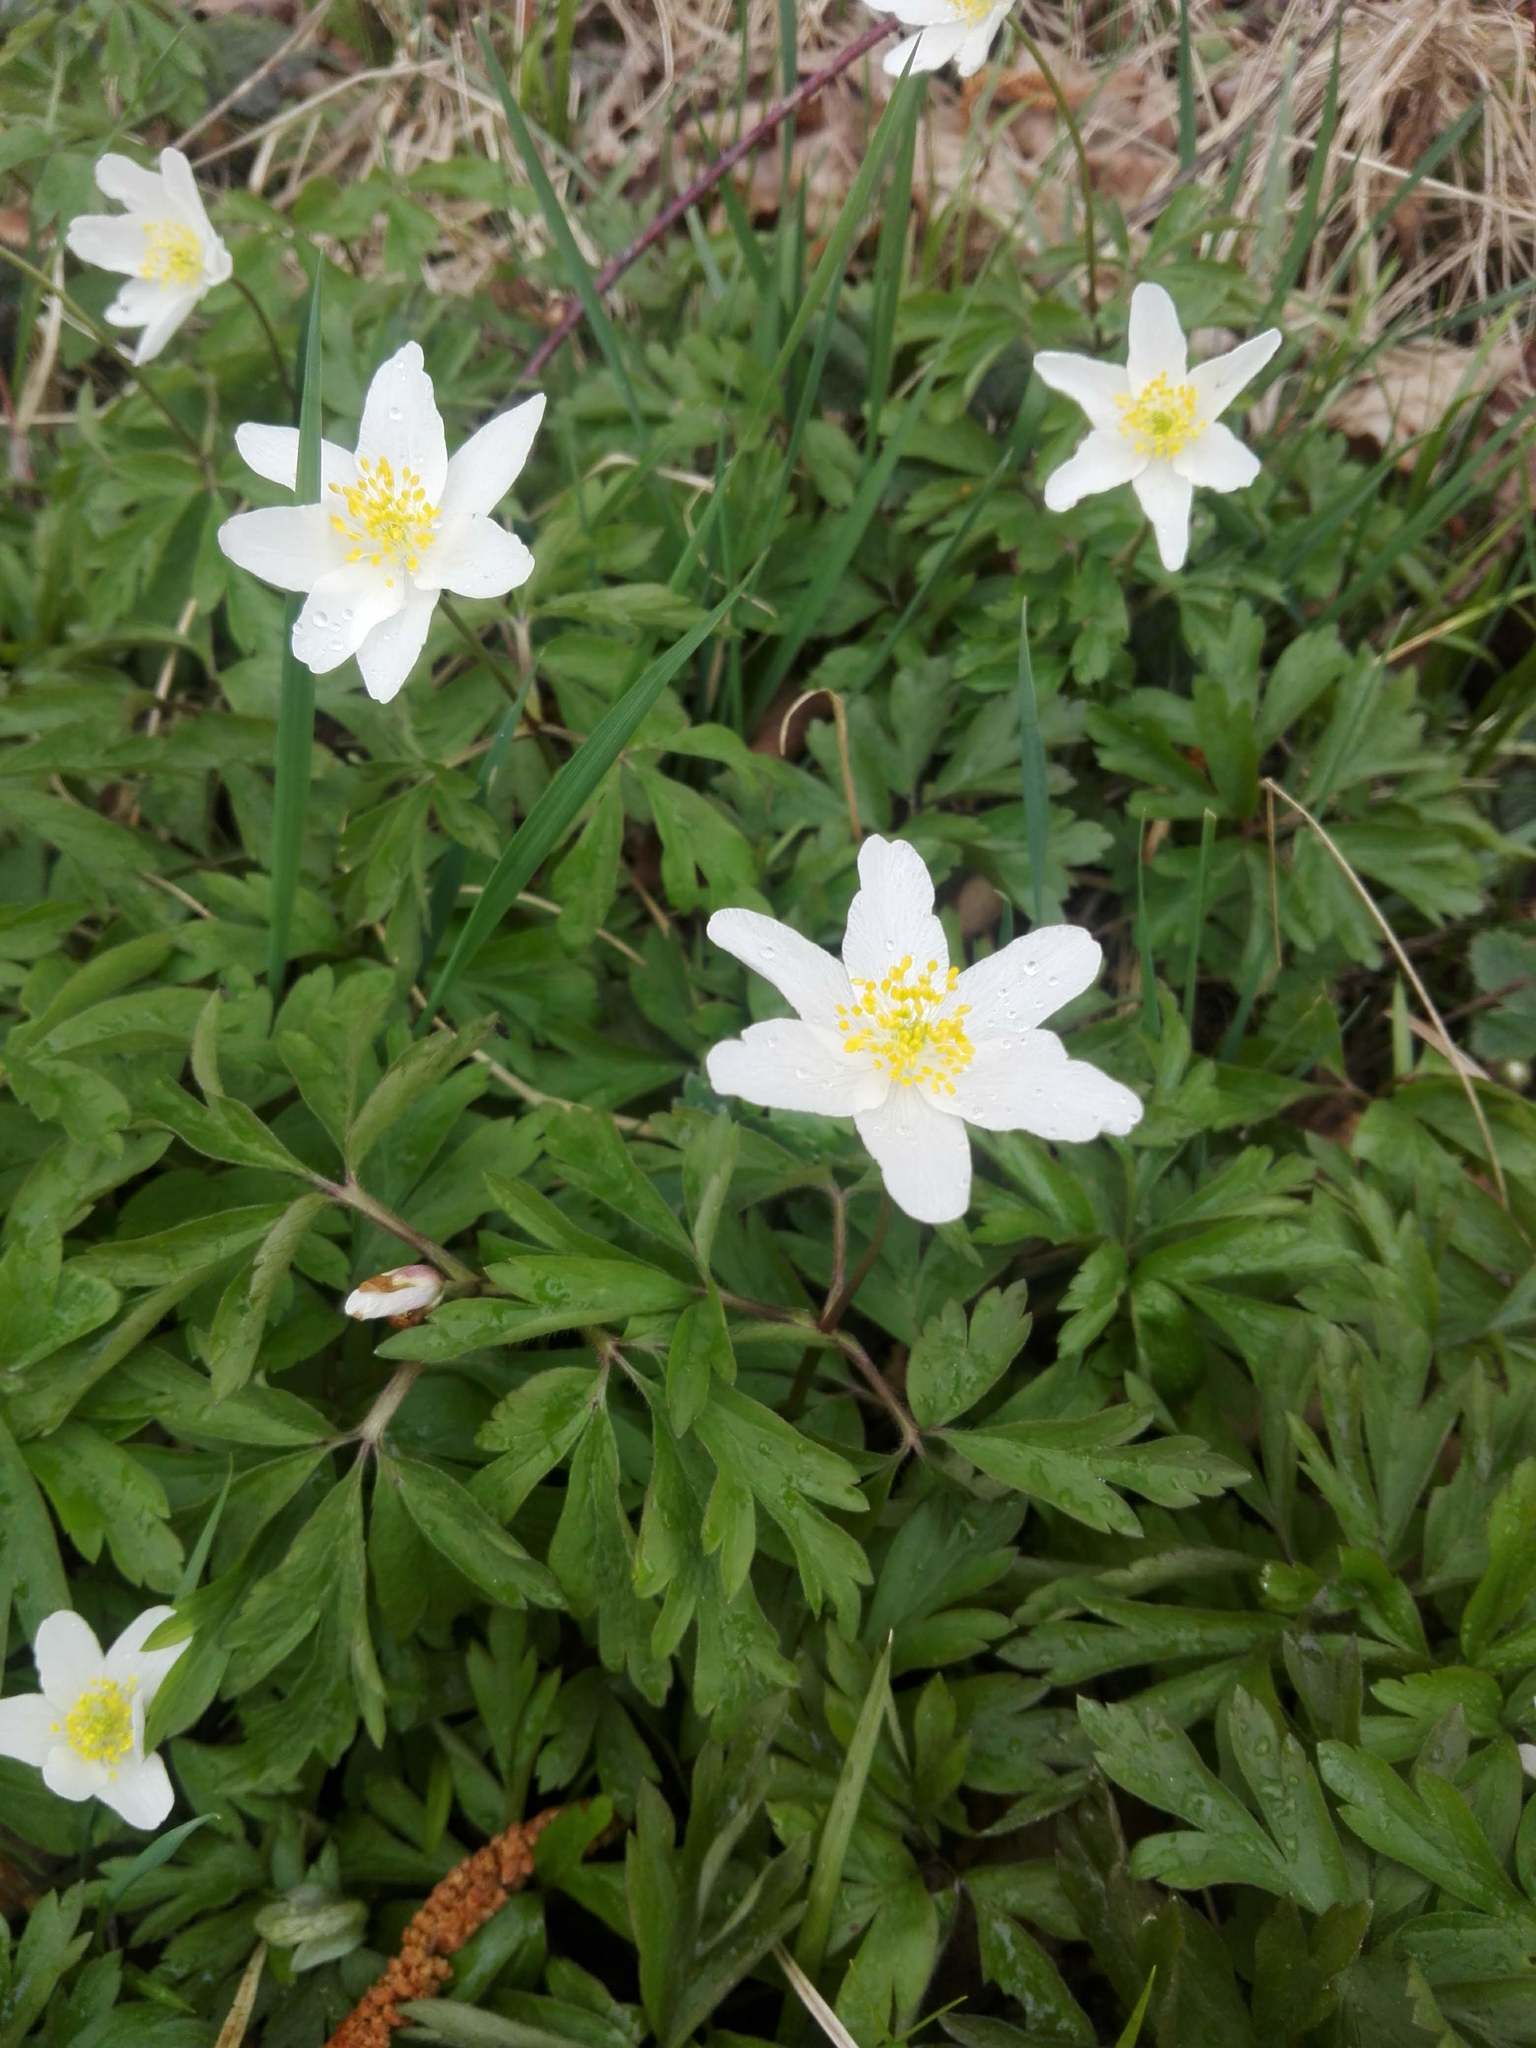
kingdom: Plantae
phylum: Tracheophyta
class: Magnoliopsida
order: Ranunculales
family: Ranunculaceae
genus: Anemone
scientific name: Anemone nemorosa
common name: Wood anemone
